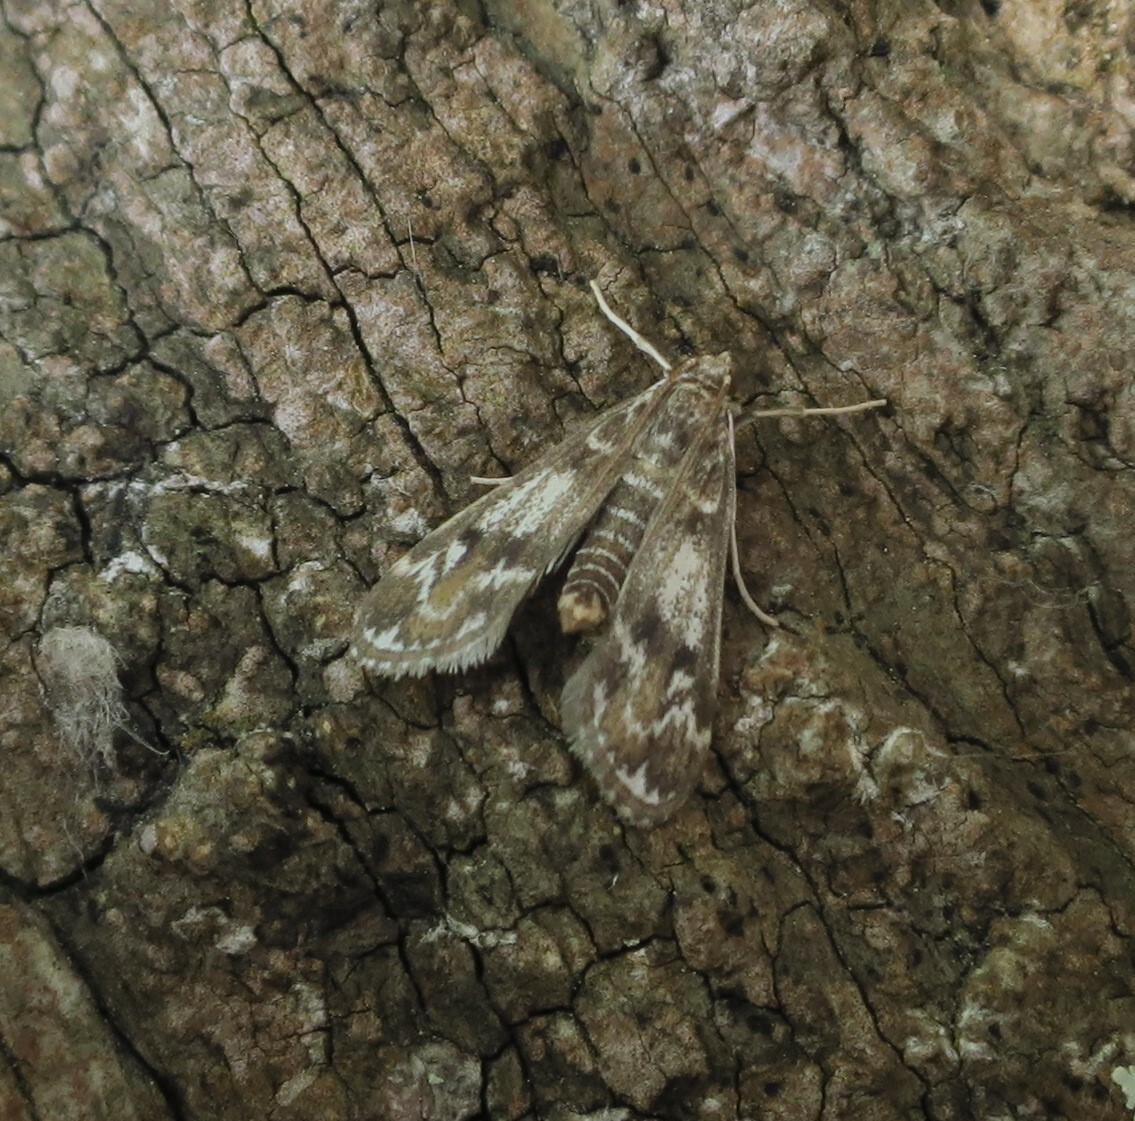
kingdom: Animalia
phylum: Arthropoda
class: Insecta
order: Lepidoptera
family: Crambidae
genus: Hygraula
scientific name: Hygraula nitens
